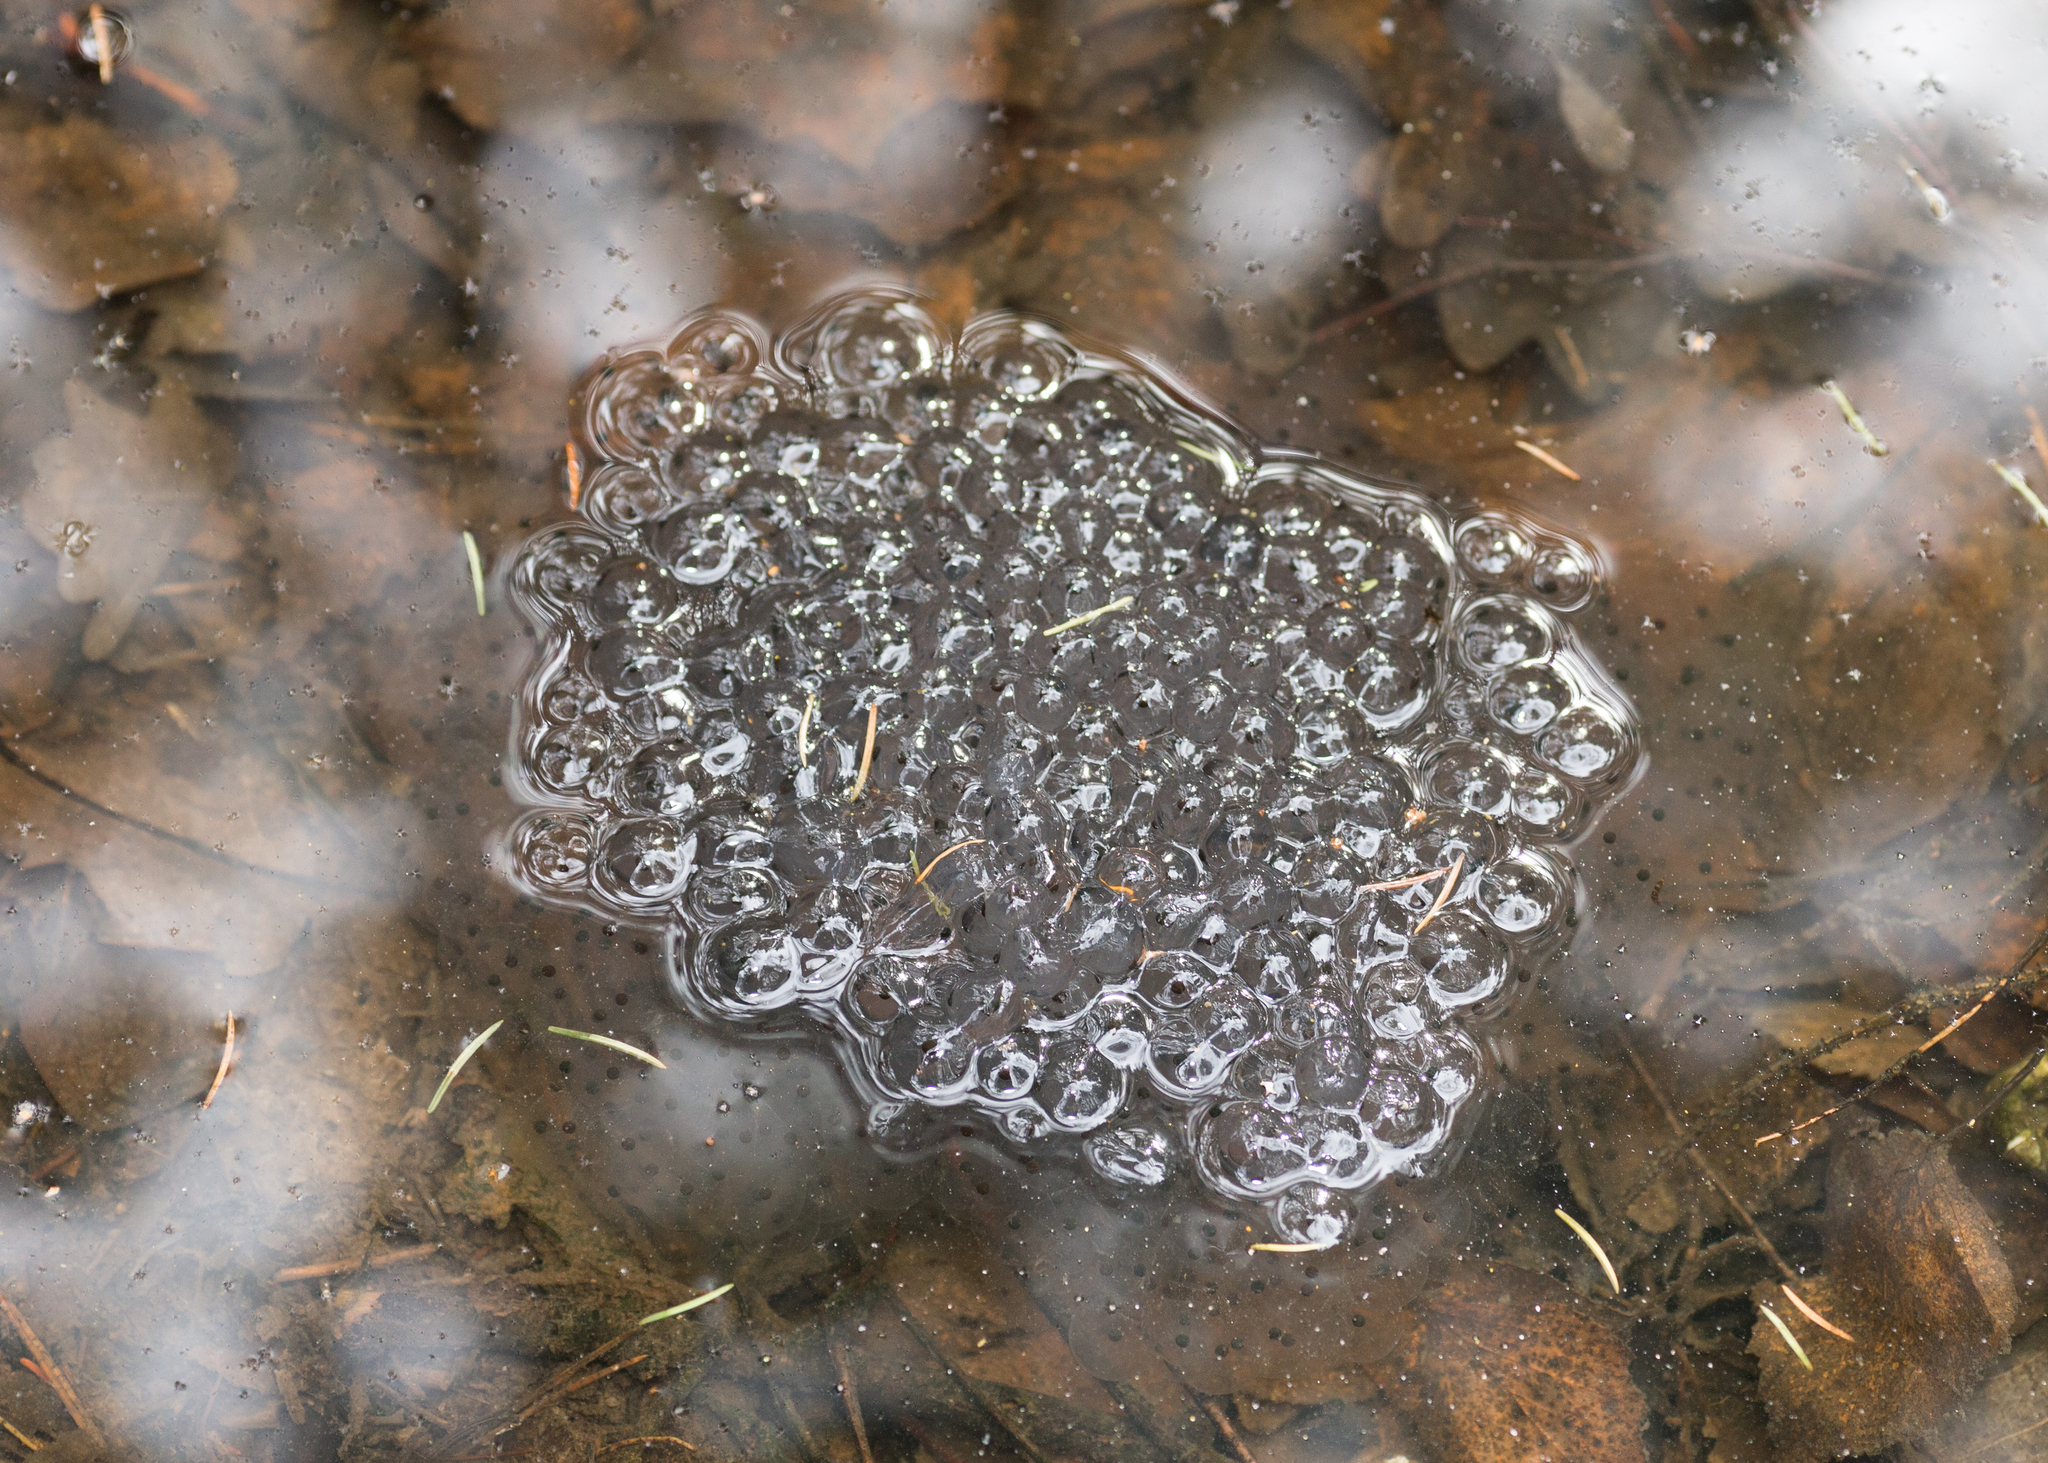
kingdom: Animalia
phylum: Chordata
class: Amphibia
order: Anura
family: Ranidae
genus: Rana
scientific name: Rana temporaria
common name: Common frog
